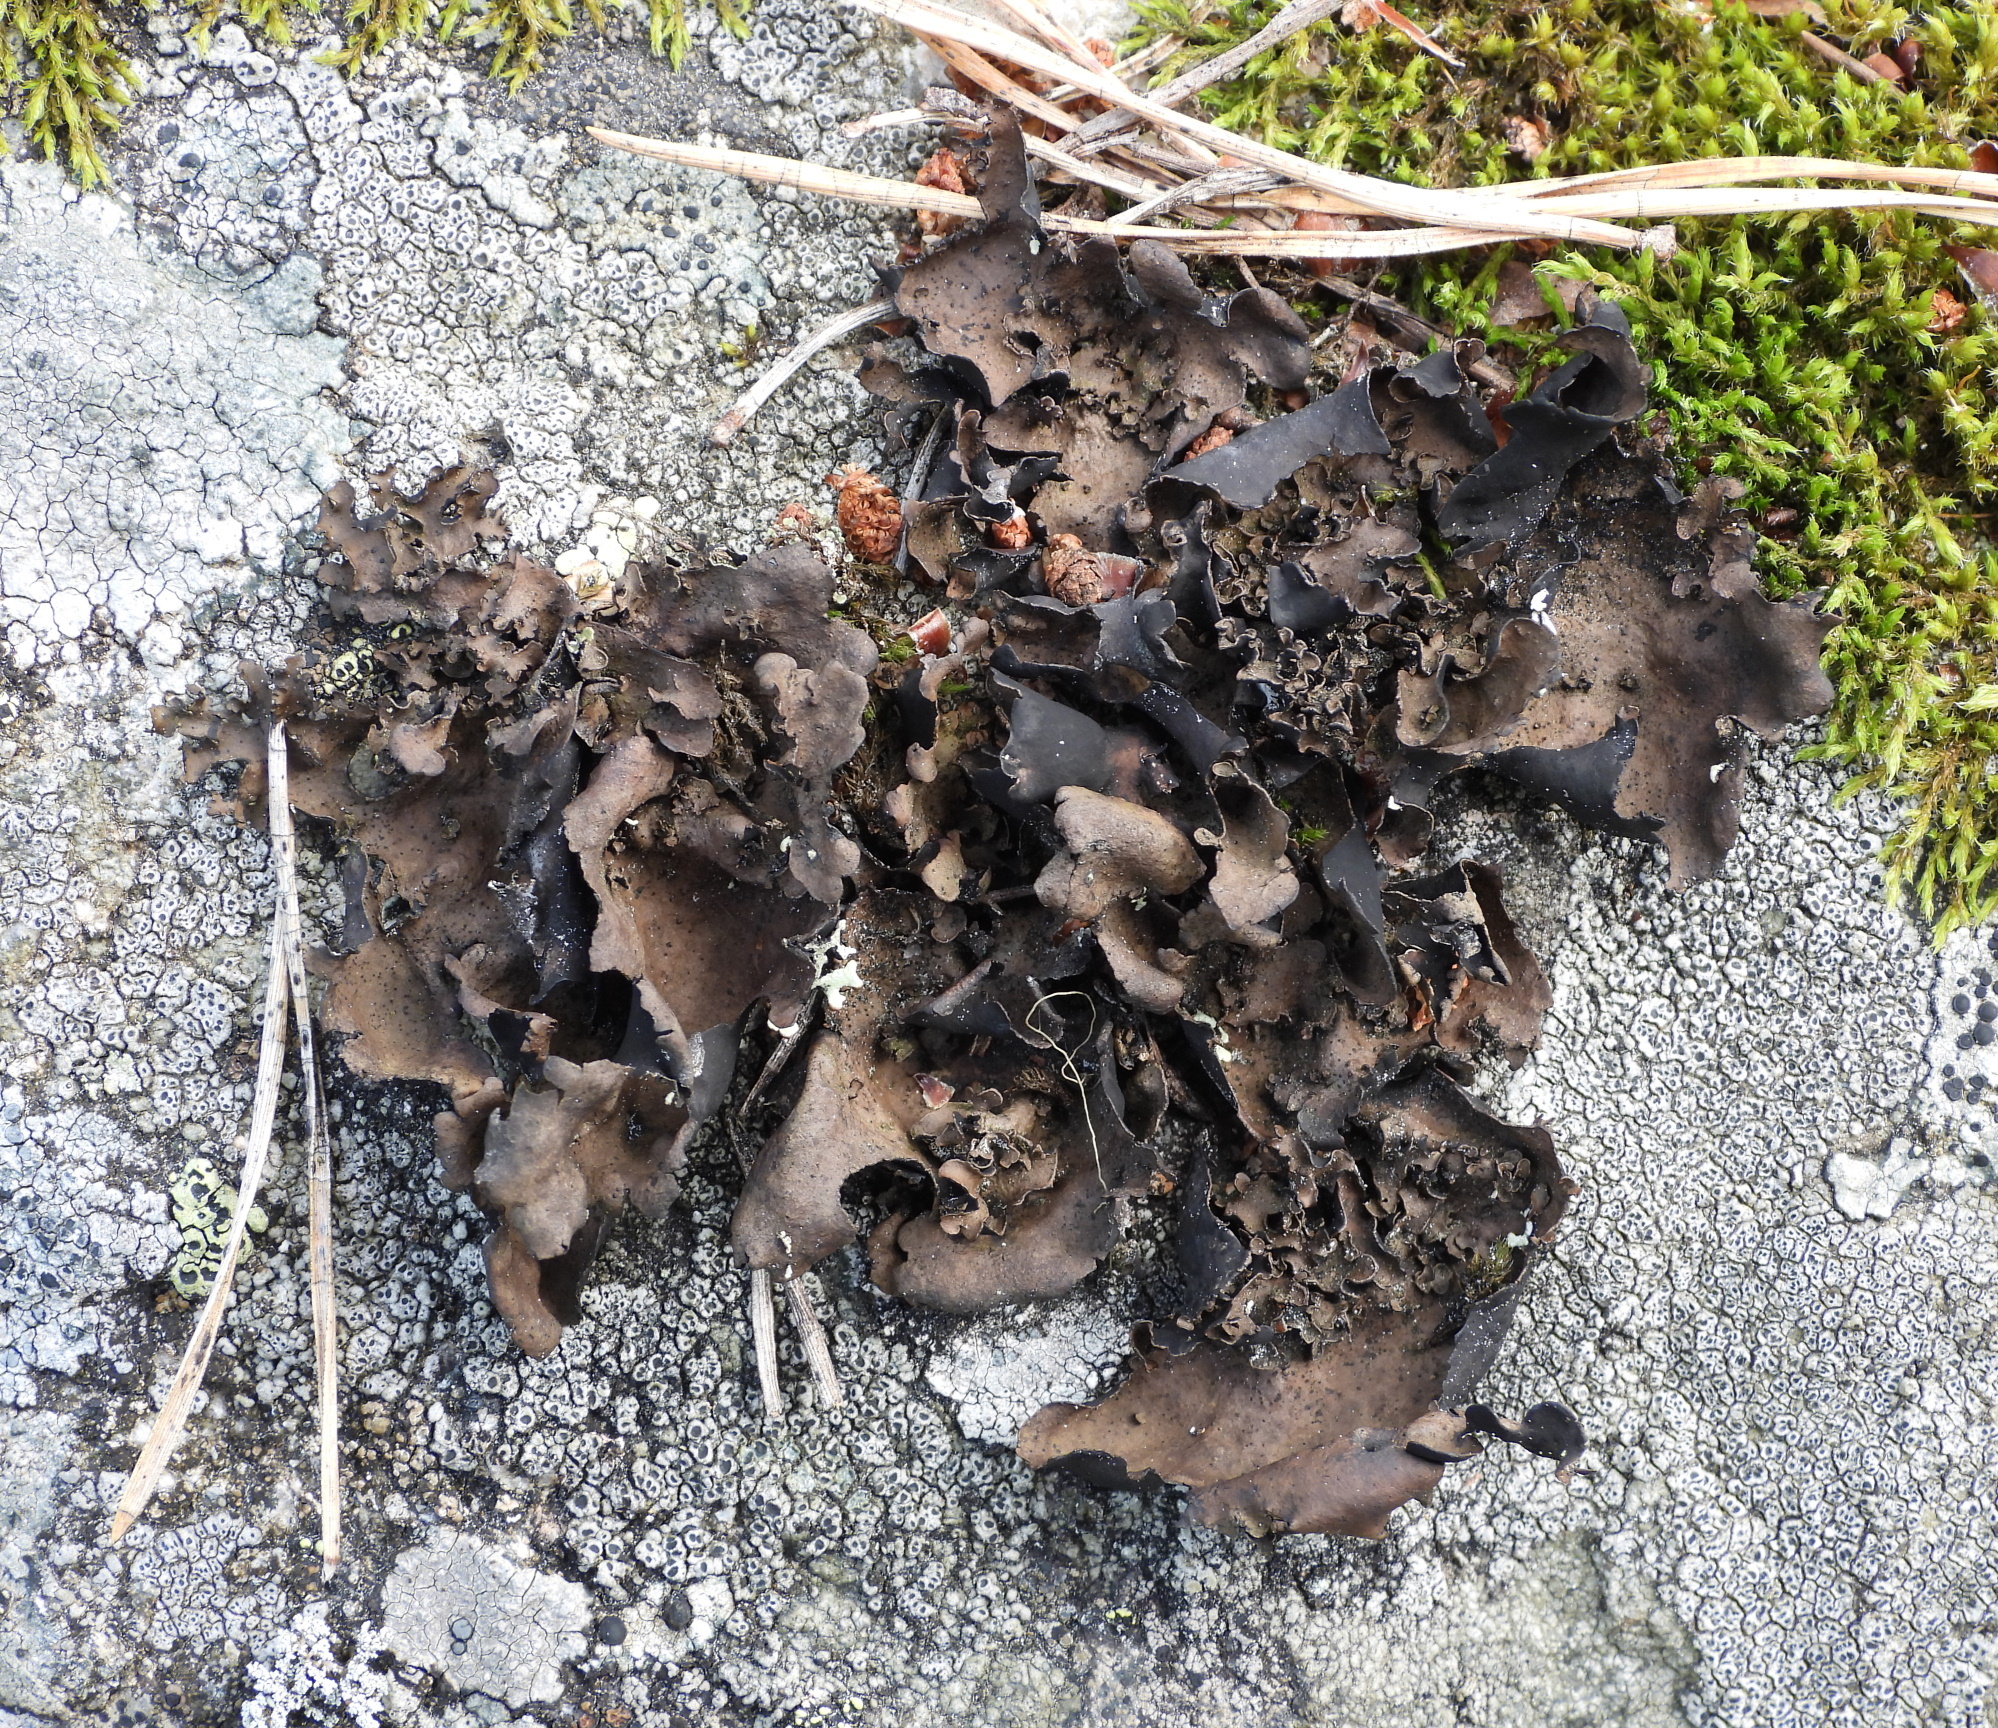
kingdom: Fungi
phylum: Ascomycota
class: Lecanoromycetes
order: Umbilicariales
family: Umbilicariaceae
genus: Umbilicaria
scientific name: Umbilicaria polyphylla
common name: Petalled rocktripe lichen
